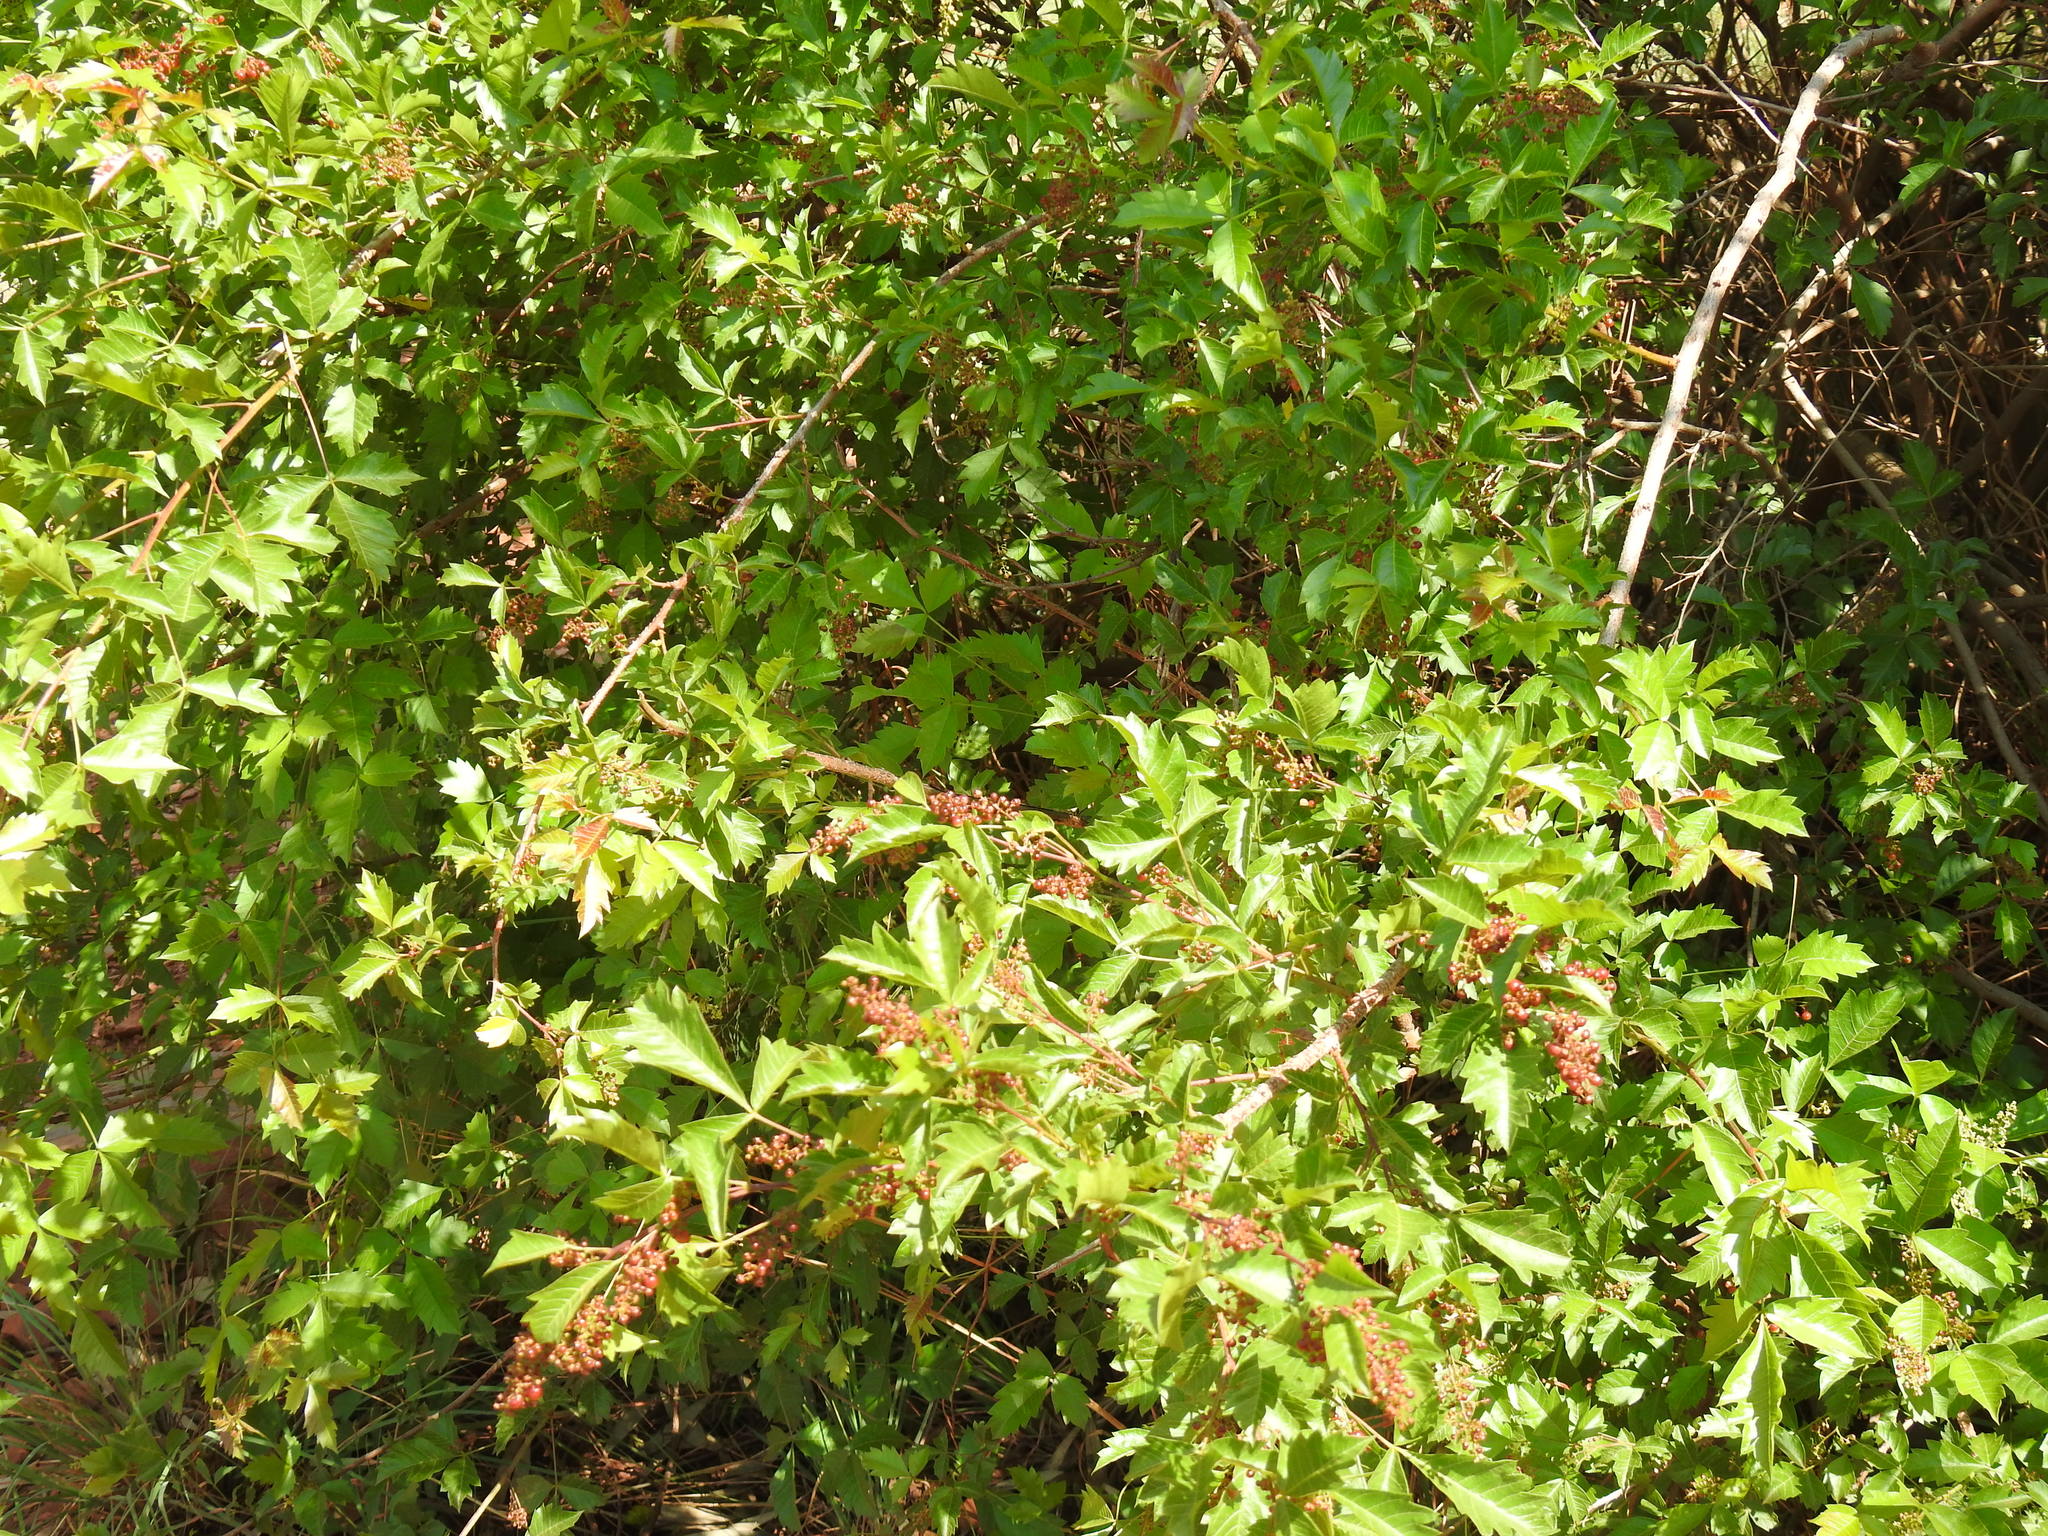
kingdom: Plantae
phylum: Tracheophyta
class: Magnoliopsida
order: Sapindales
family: Anacardiaceae
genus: Searsia
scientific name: Searsia dentata
